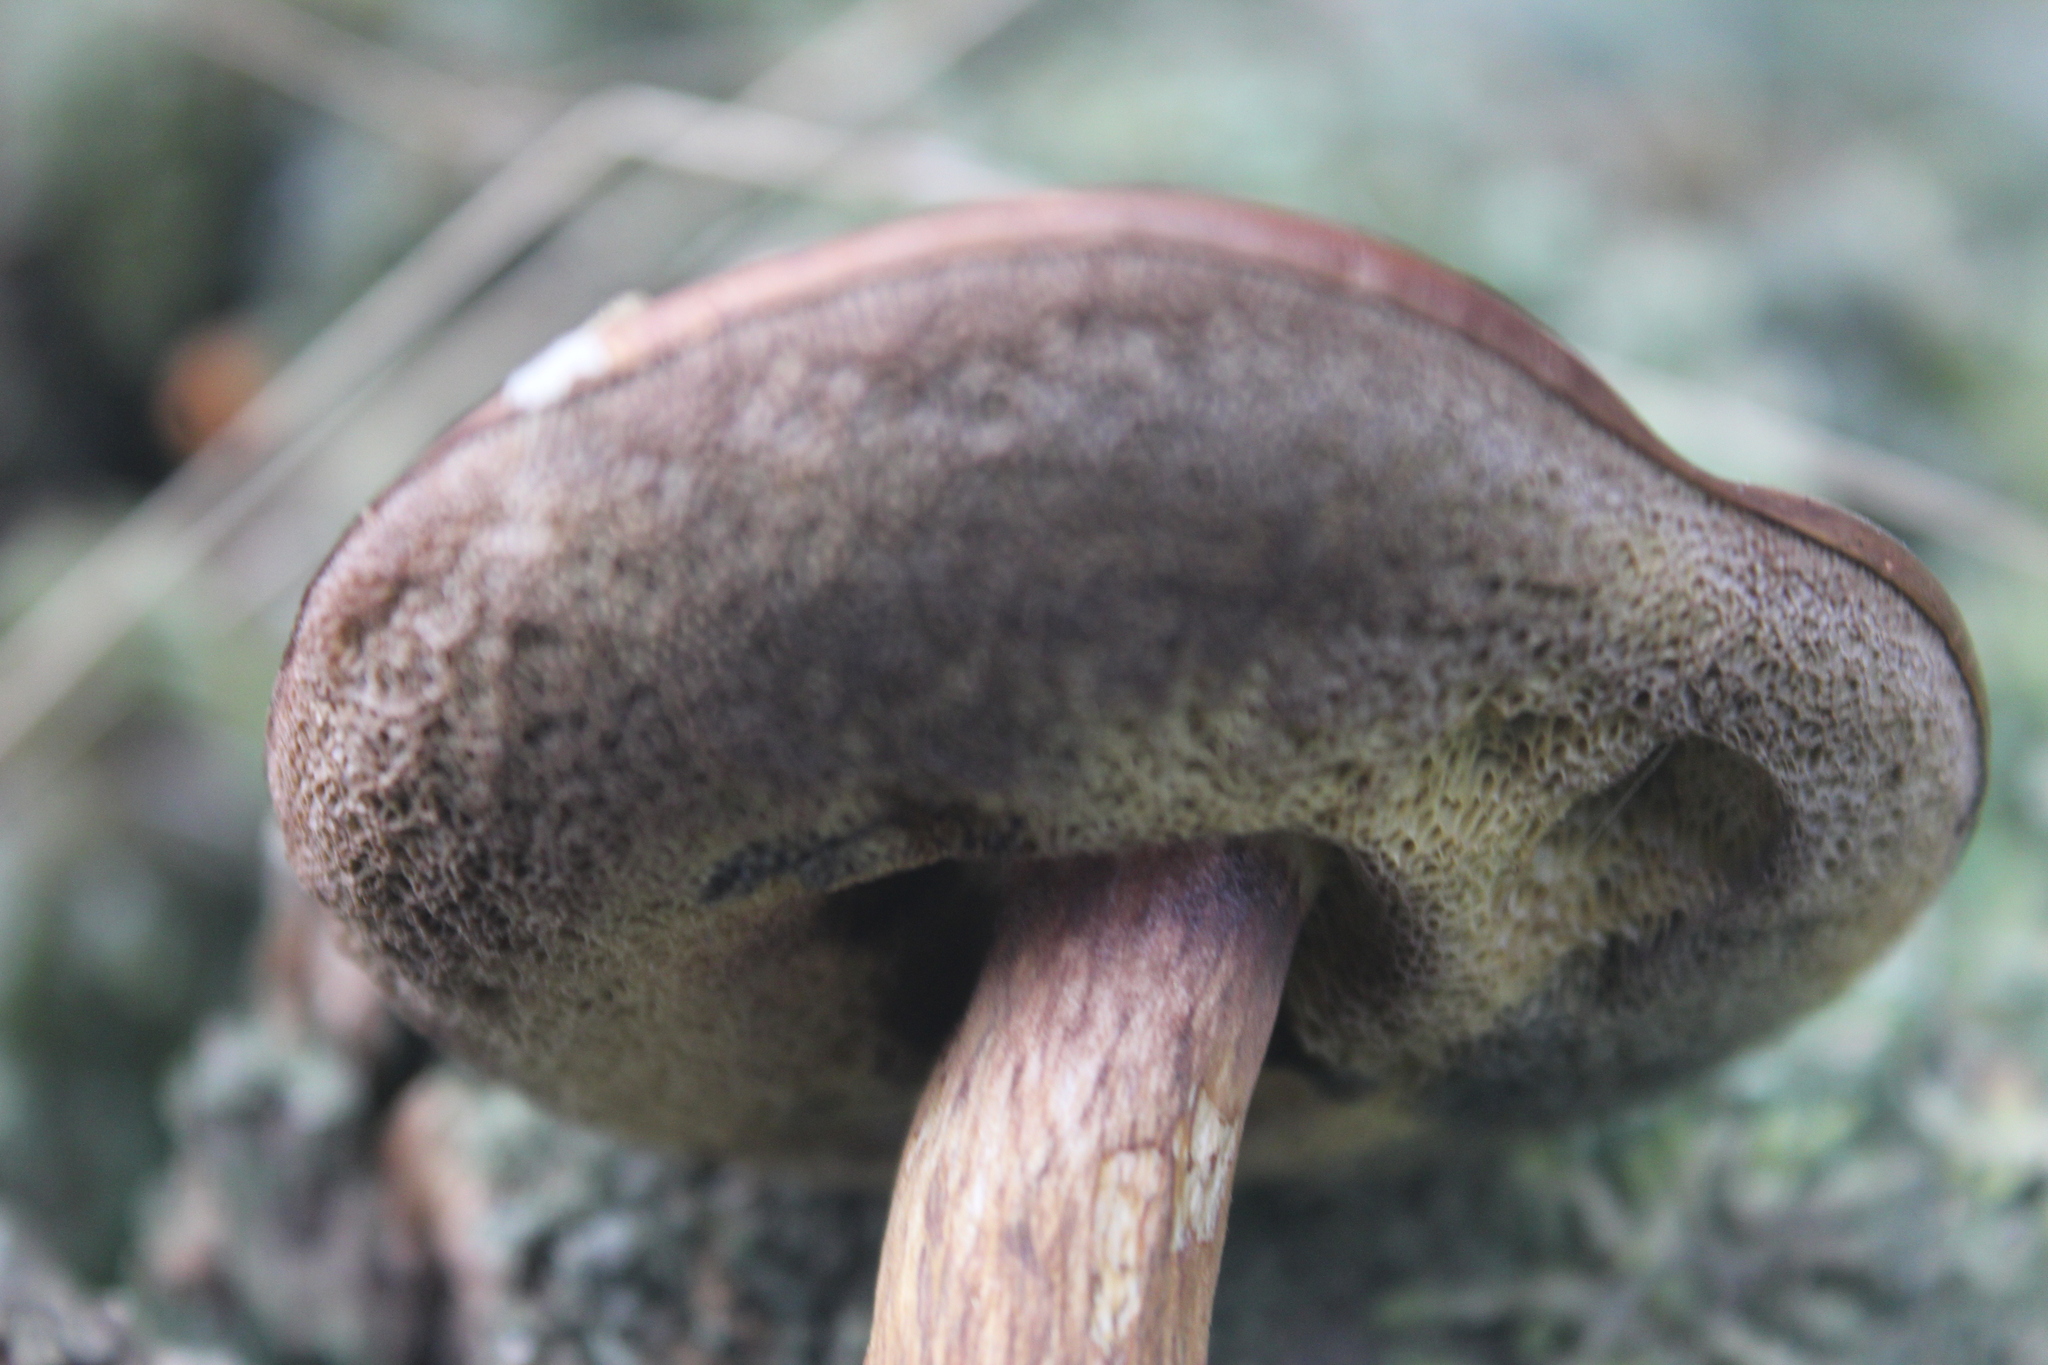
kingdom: Fungi
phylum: Basidiomycota
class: Agaricomycetes
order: Boletales
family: Boletaceae
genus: Imleria
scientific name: Imleria badia
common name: Bay bolete
